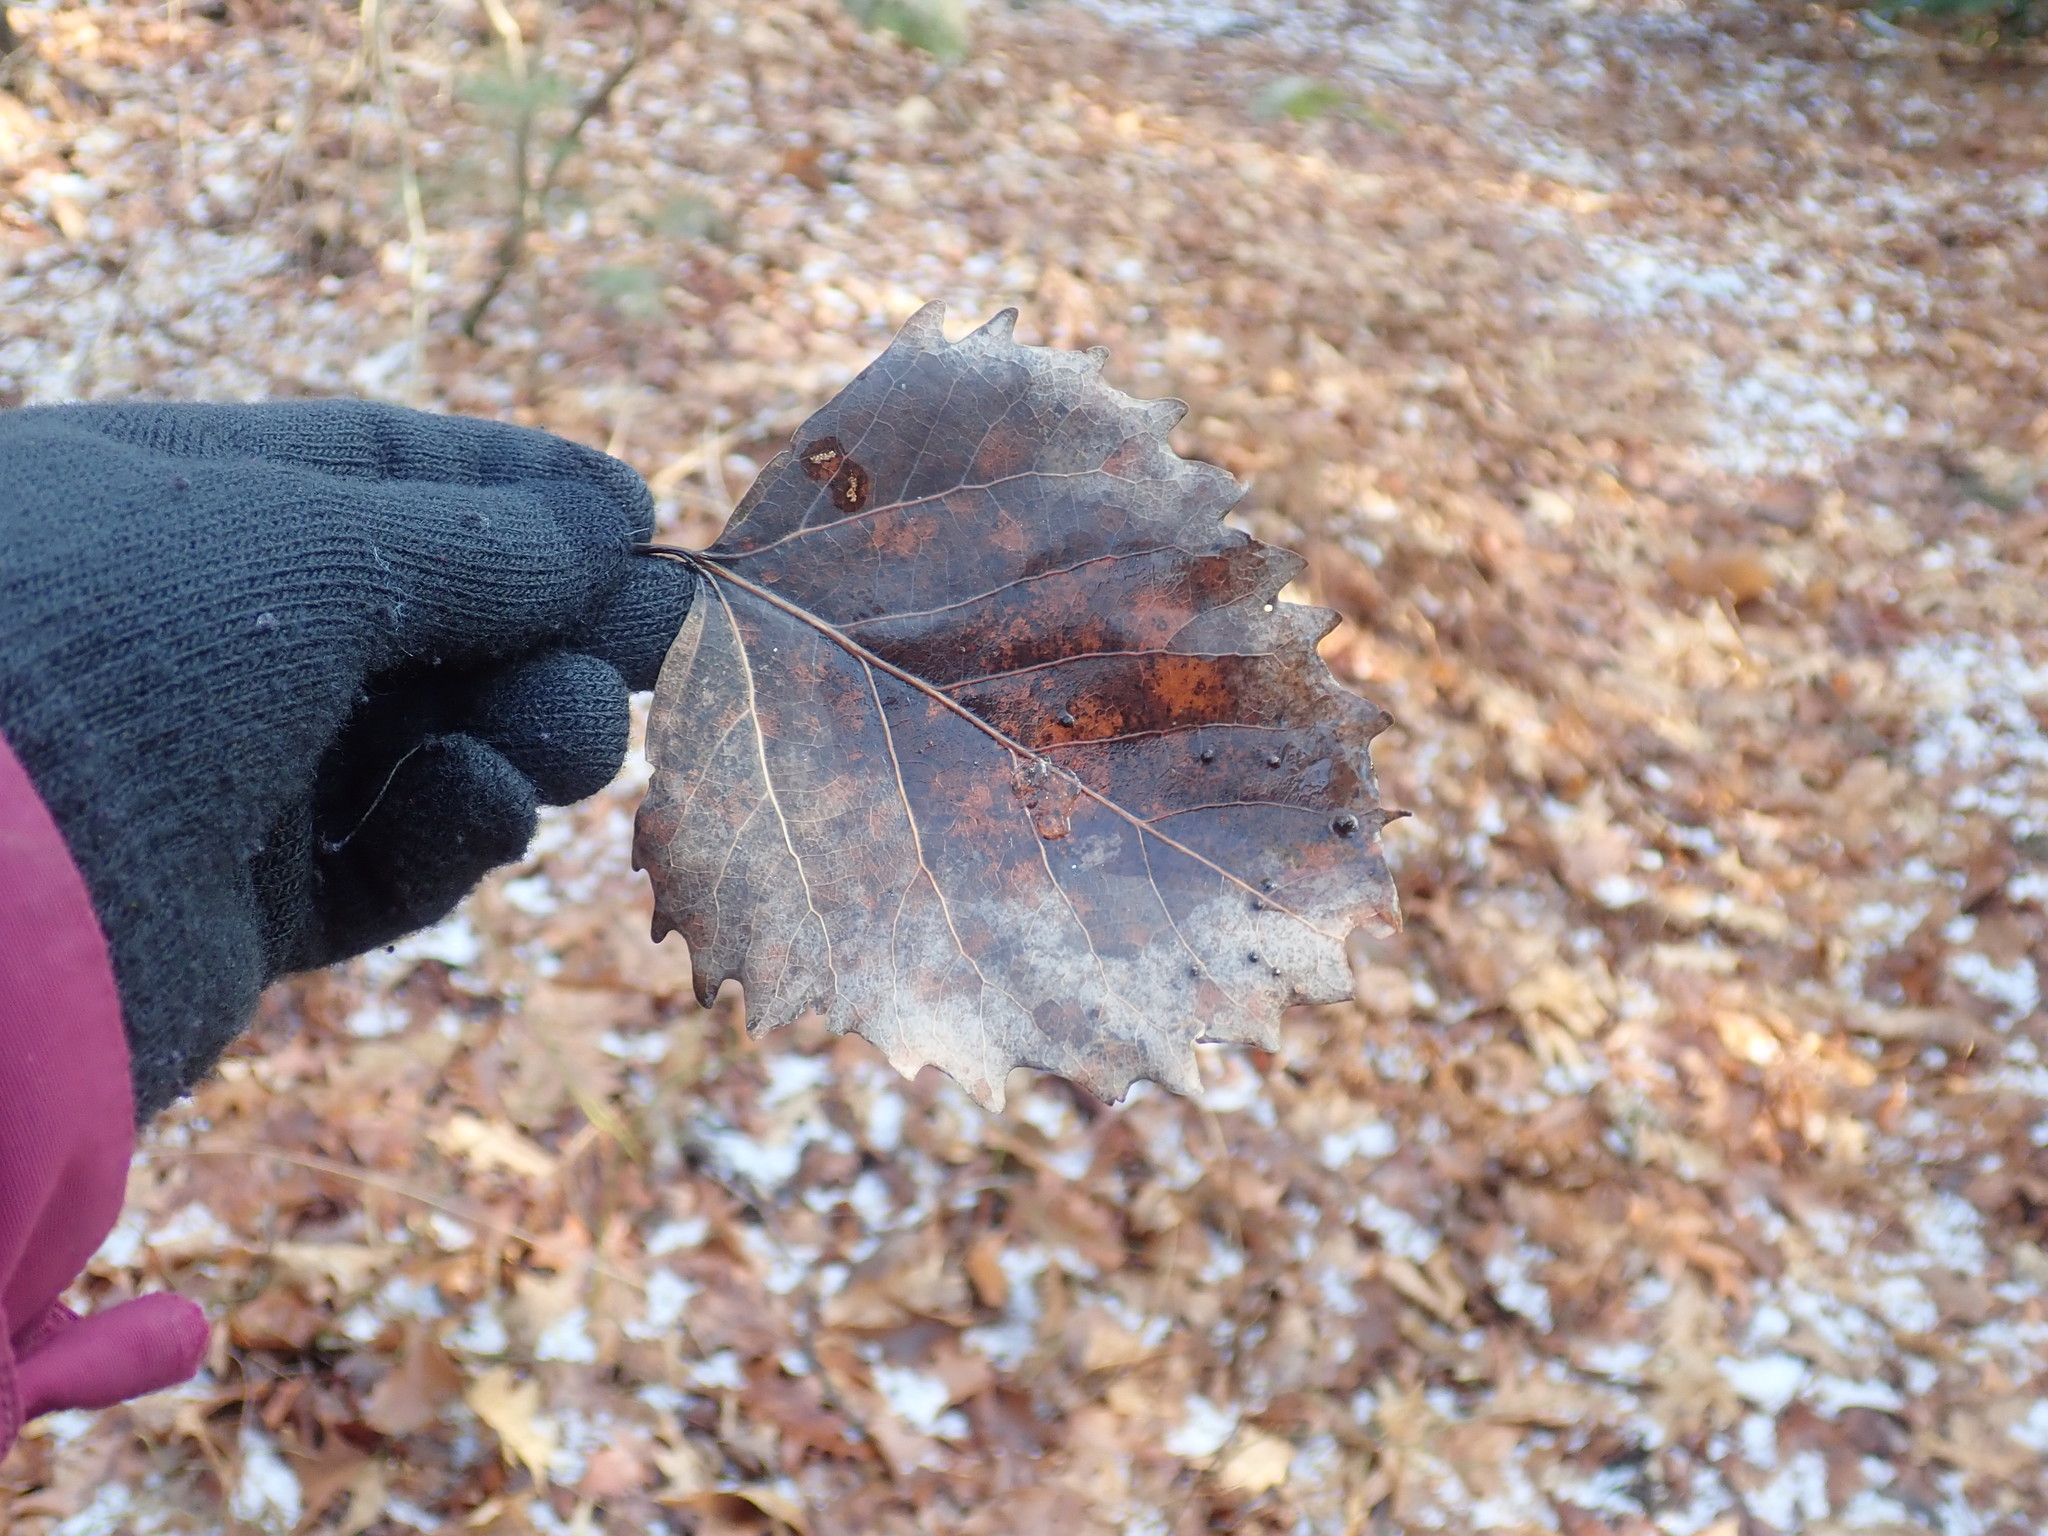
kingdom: Plantae
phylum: Tracheophyta
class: Magnoliopsida
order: Malpighiales
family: Salicaceae
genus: Populus
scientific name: Populus grandidentata
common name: Bigtooth aspen
